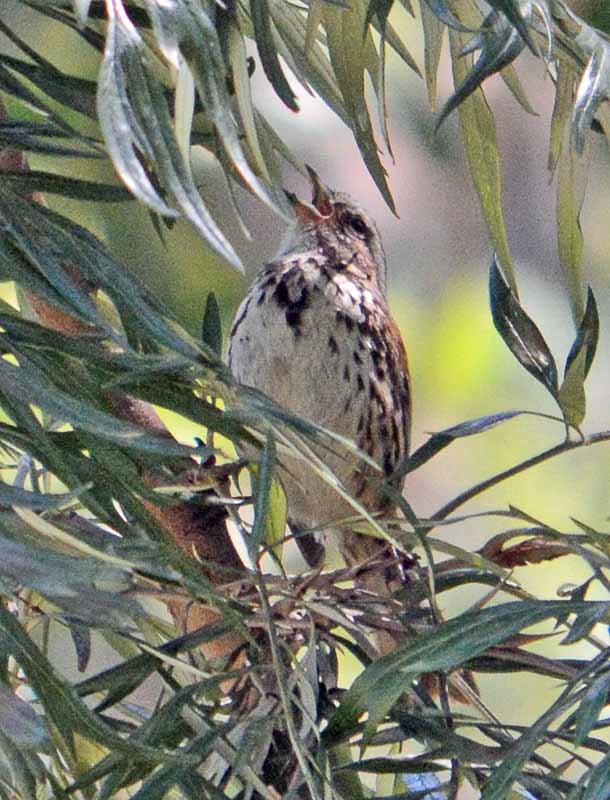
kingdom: Animalia
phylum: Chordata
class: Aves
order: Passeriformes
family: Passerellidae
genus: Melospiza
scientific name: Melospiza melodia
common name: Song sparrow
